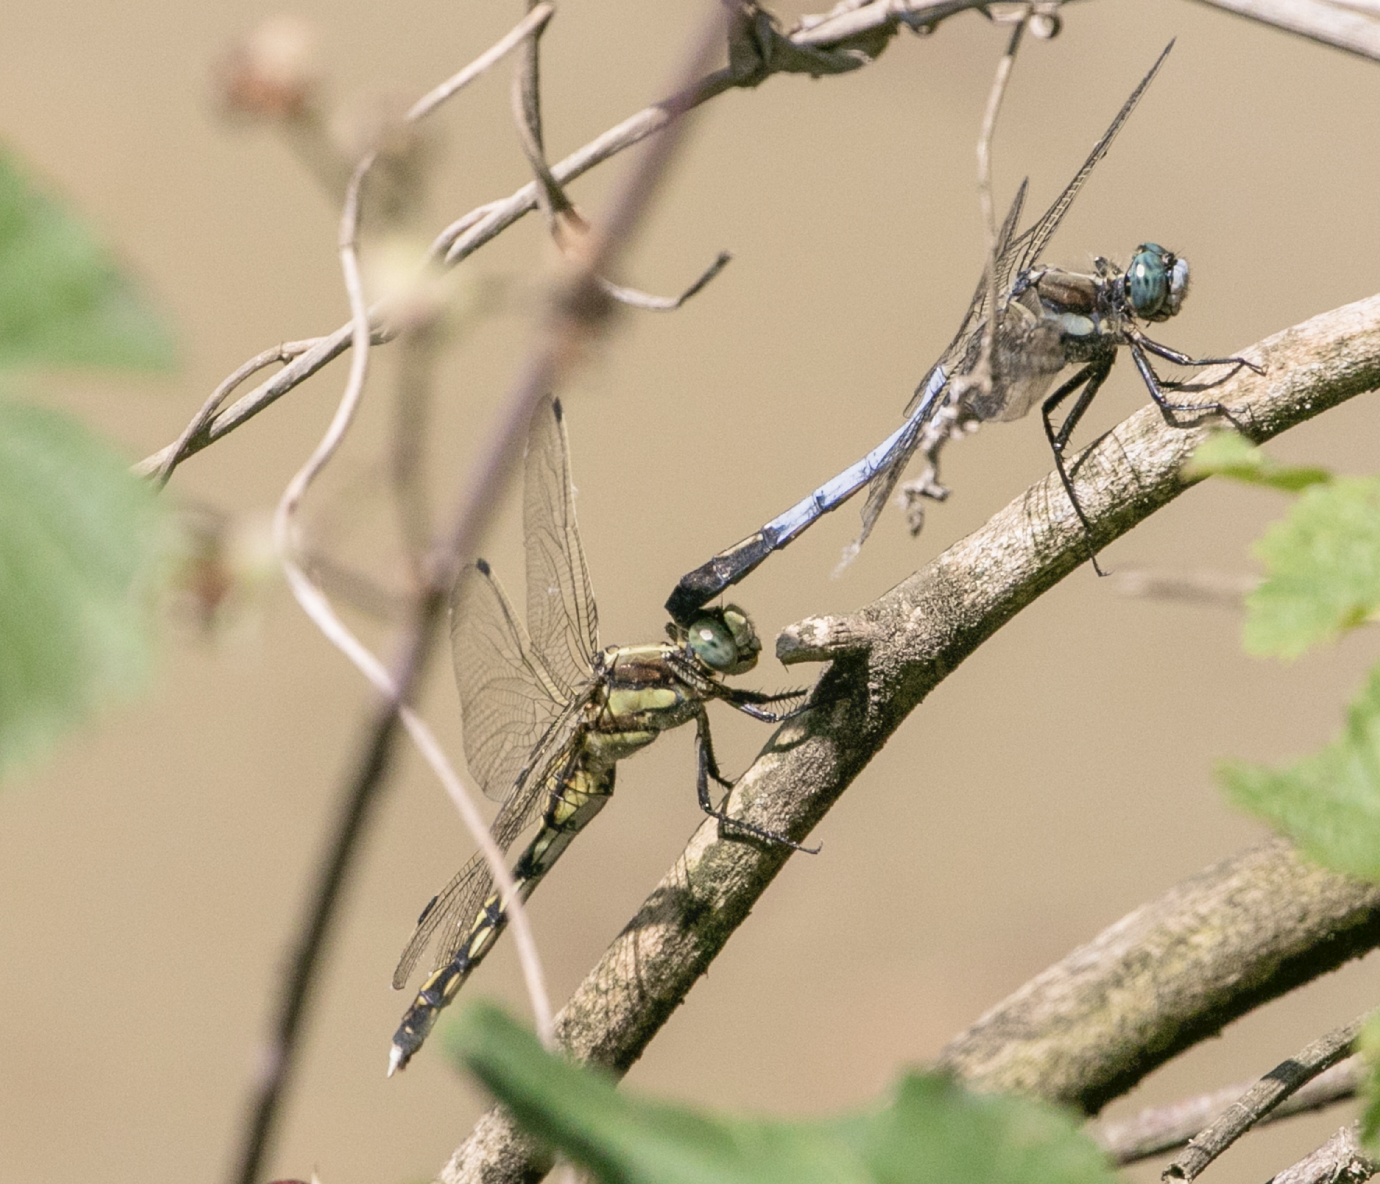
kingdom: Animalia
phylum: Arthropoda
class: Insecta
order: Odonata
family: Libellulidae
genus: Orthetrum
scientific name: Orthetrum albistylum
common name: White-tailed skimmer
